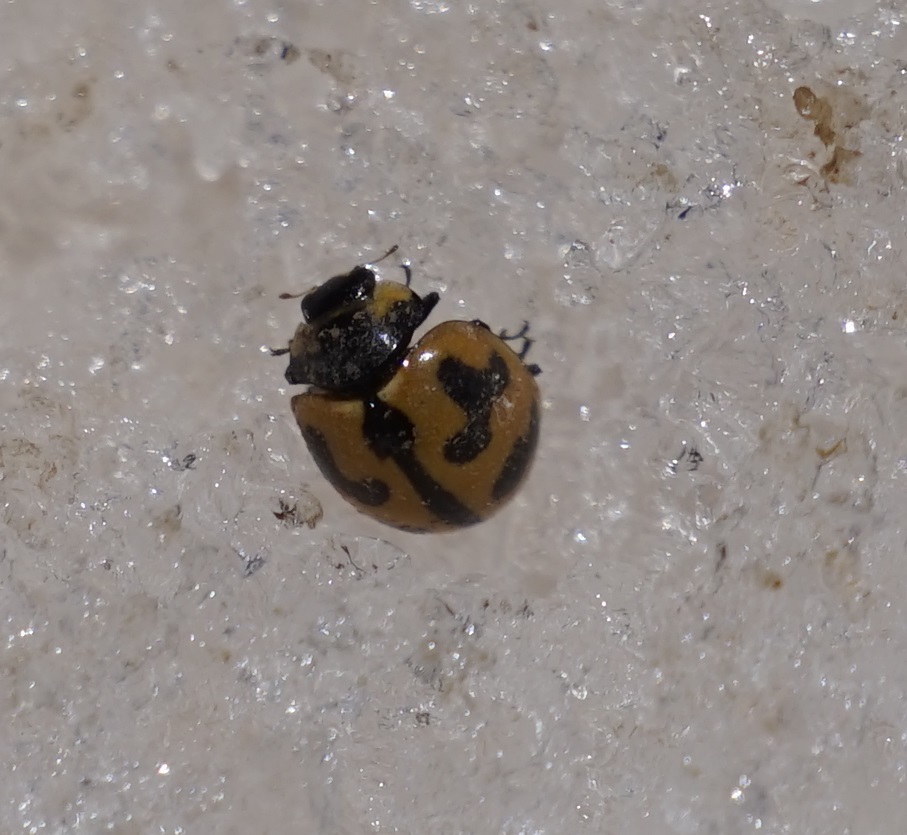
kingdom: Animalia
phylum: Arthropoda
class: Insecta
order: Coleoptera
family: Coccinellidae
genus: Coccinella
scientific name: Coccinella transversalis
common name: Transverse lady beetle
